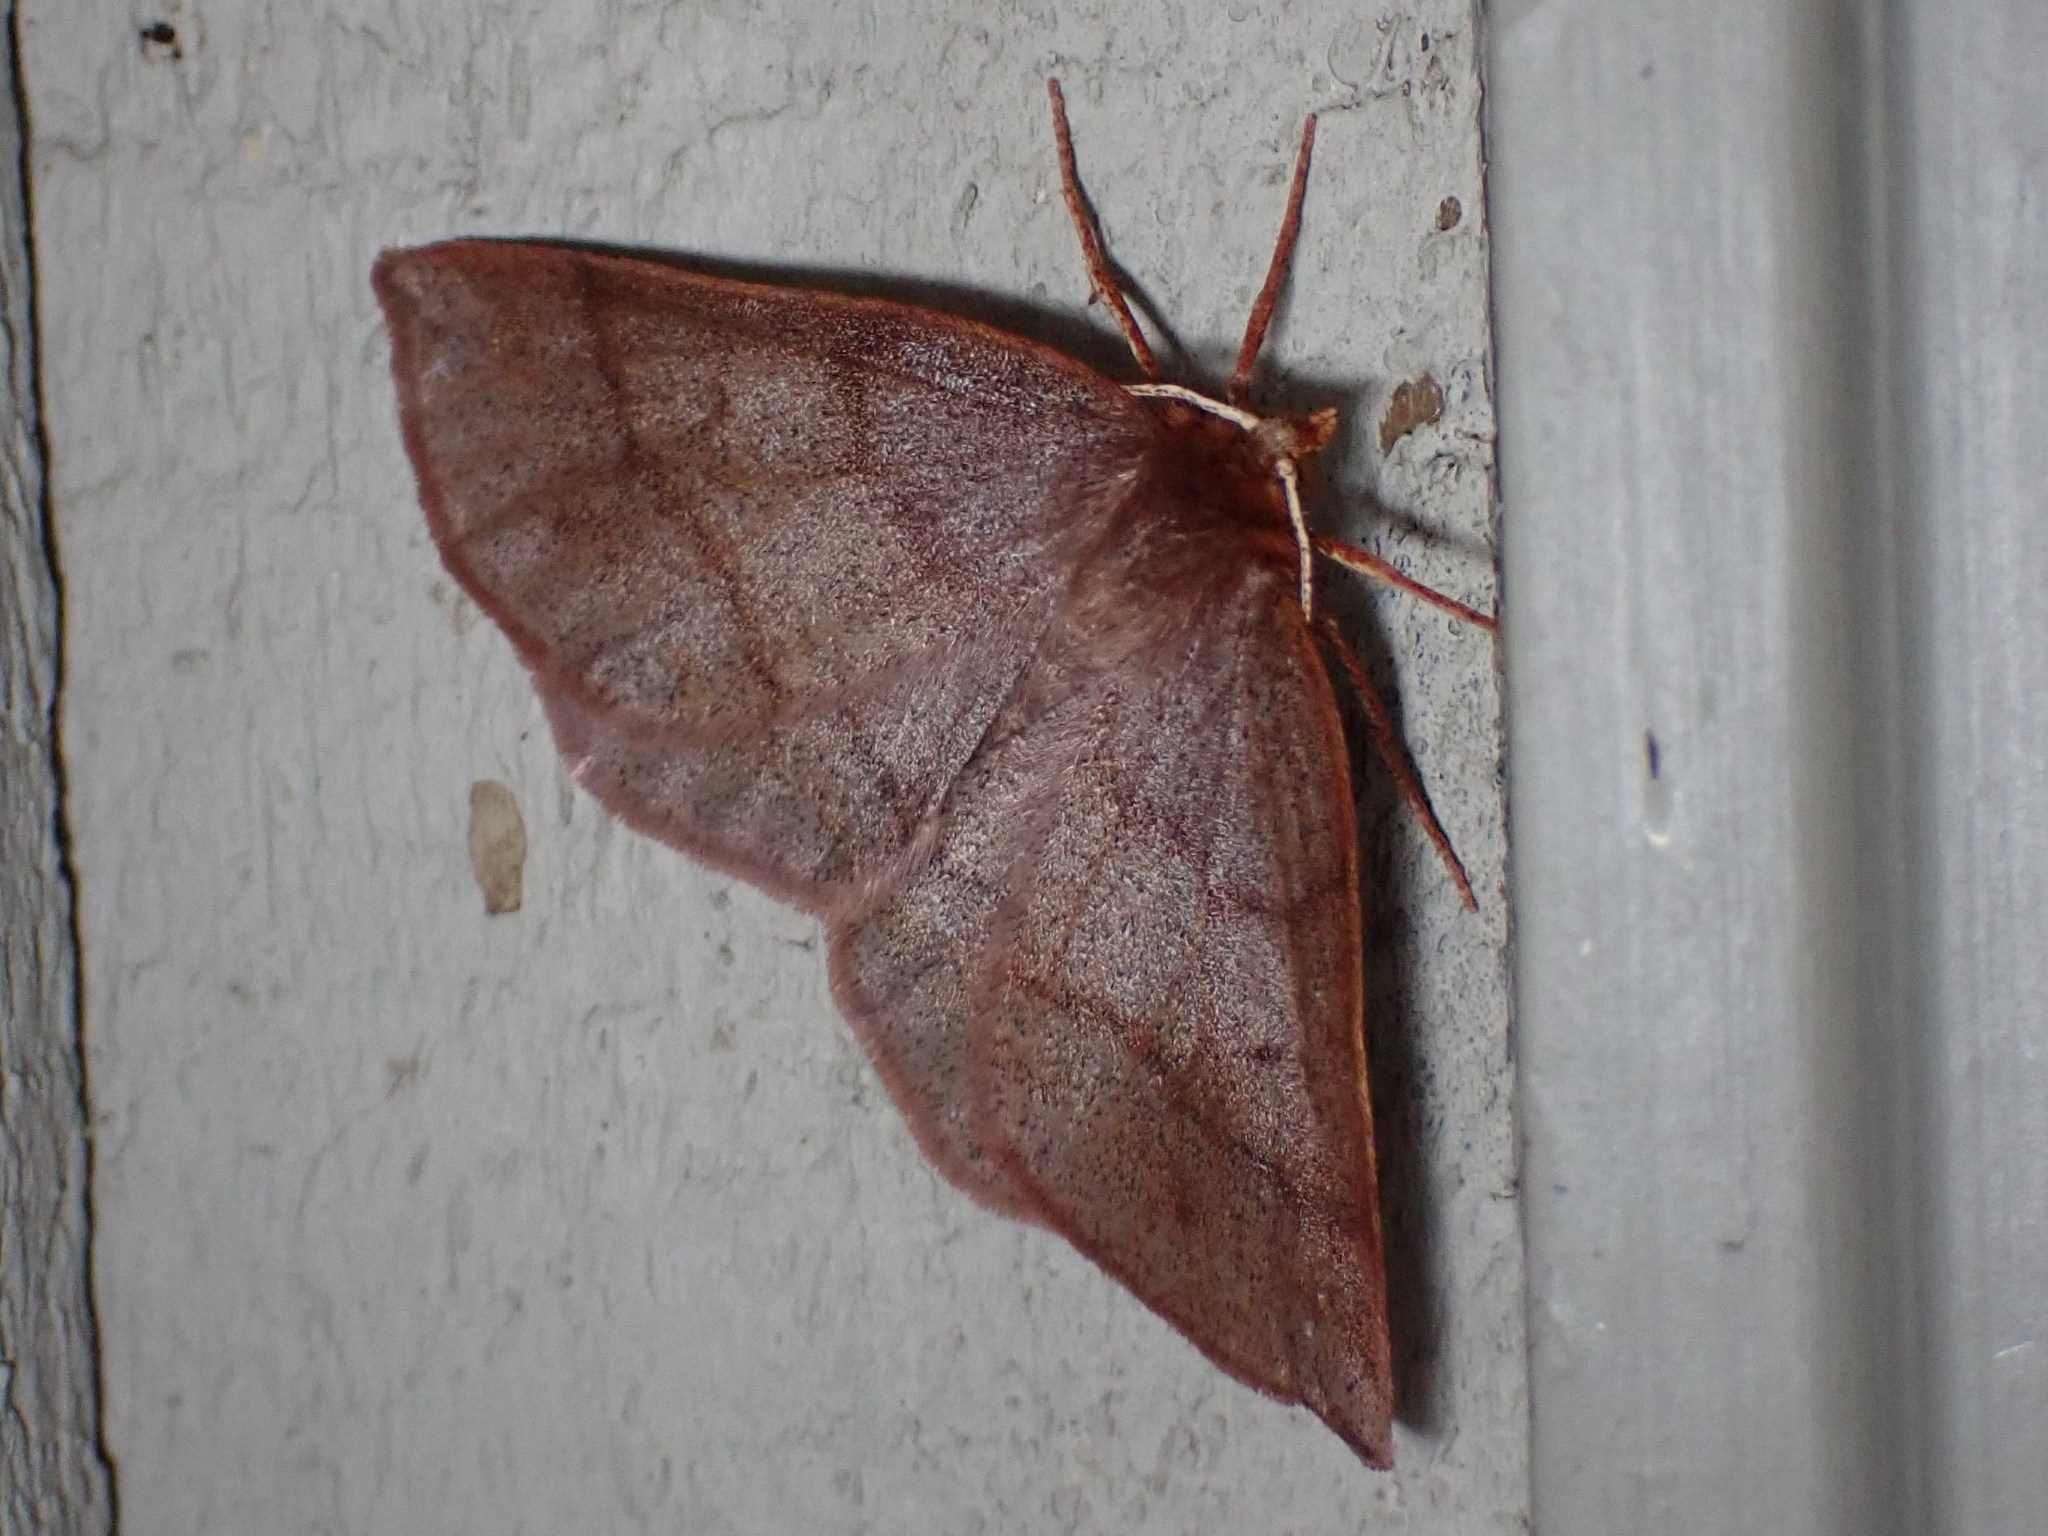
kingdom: Animalia
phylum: Arthropoda
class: Insecta
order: Lepidoptera
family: Geometridae
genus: Metarranthis
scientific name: Metarranthis duaria
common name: Ruddy metarranthis moth
